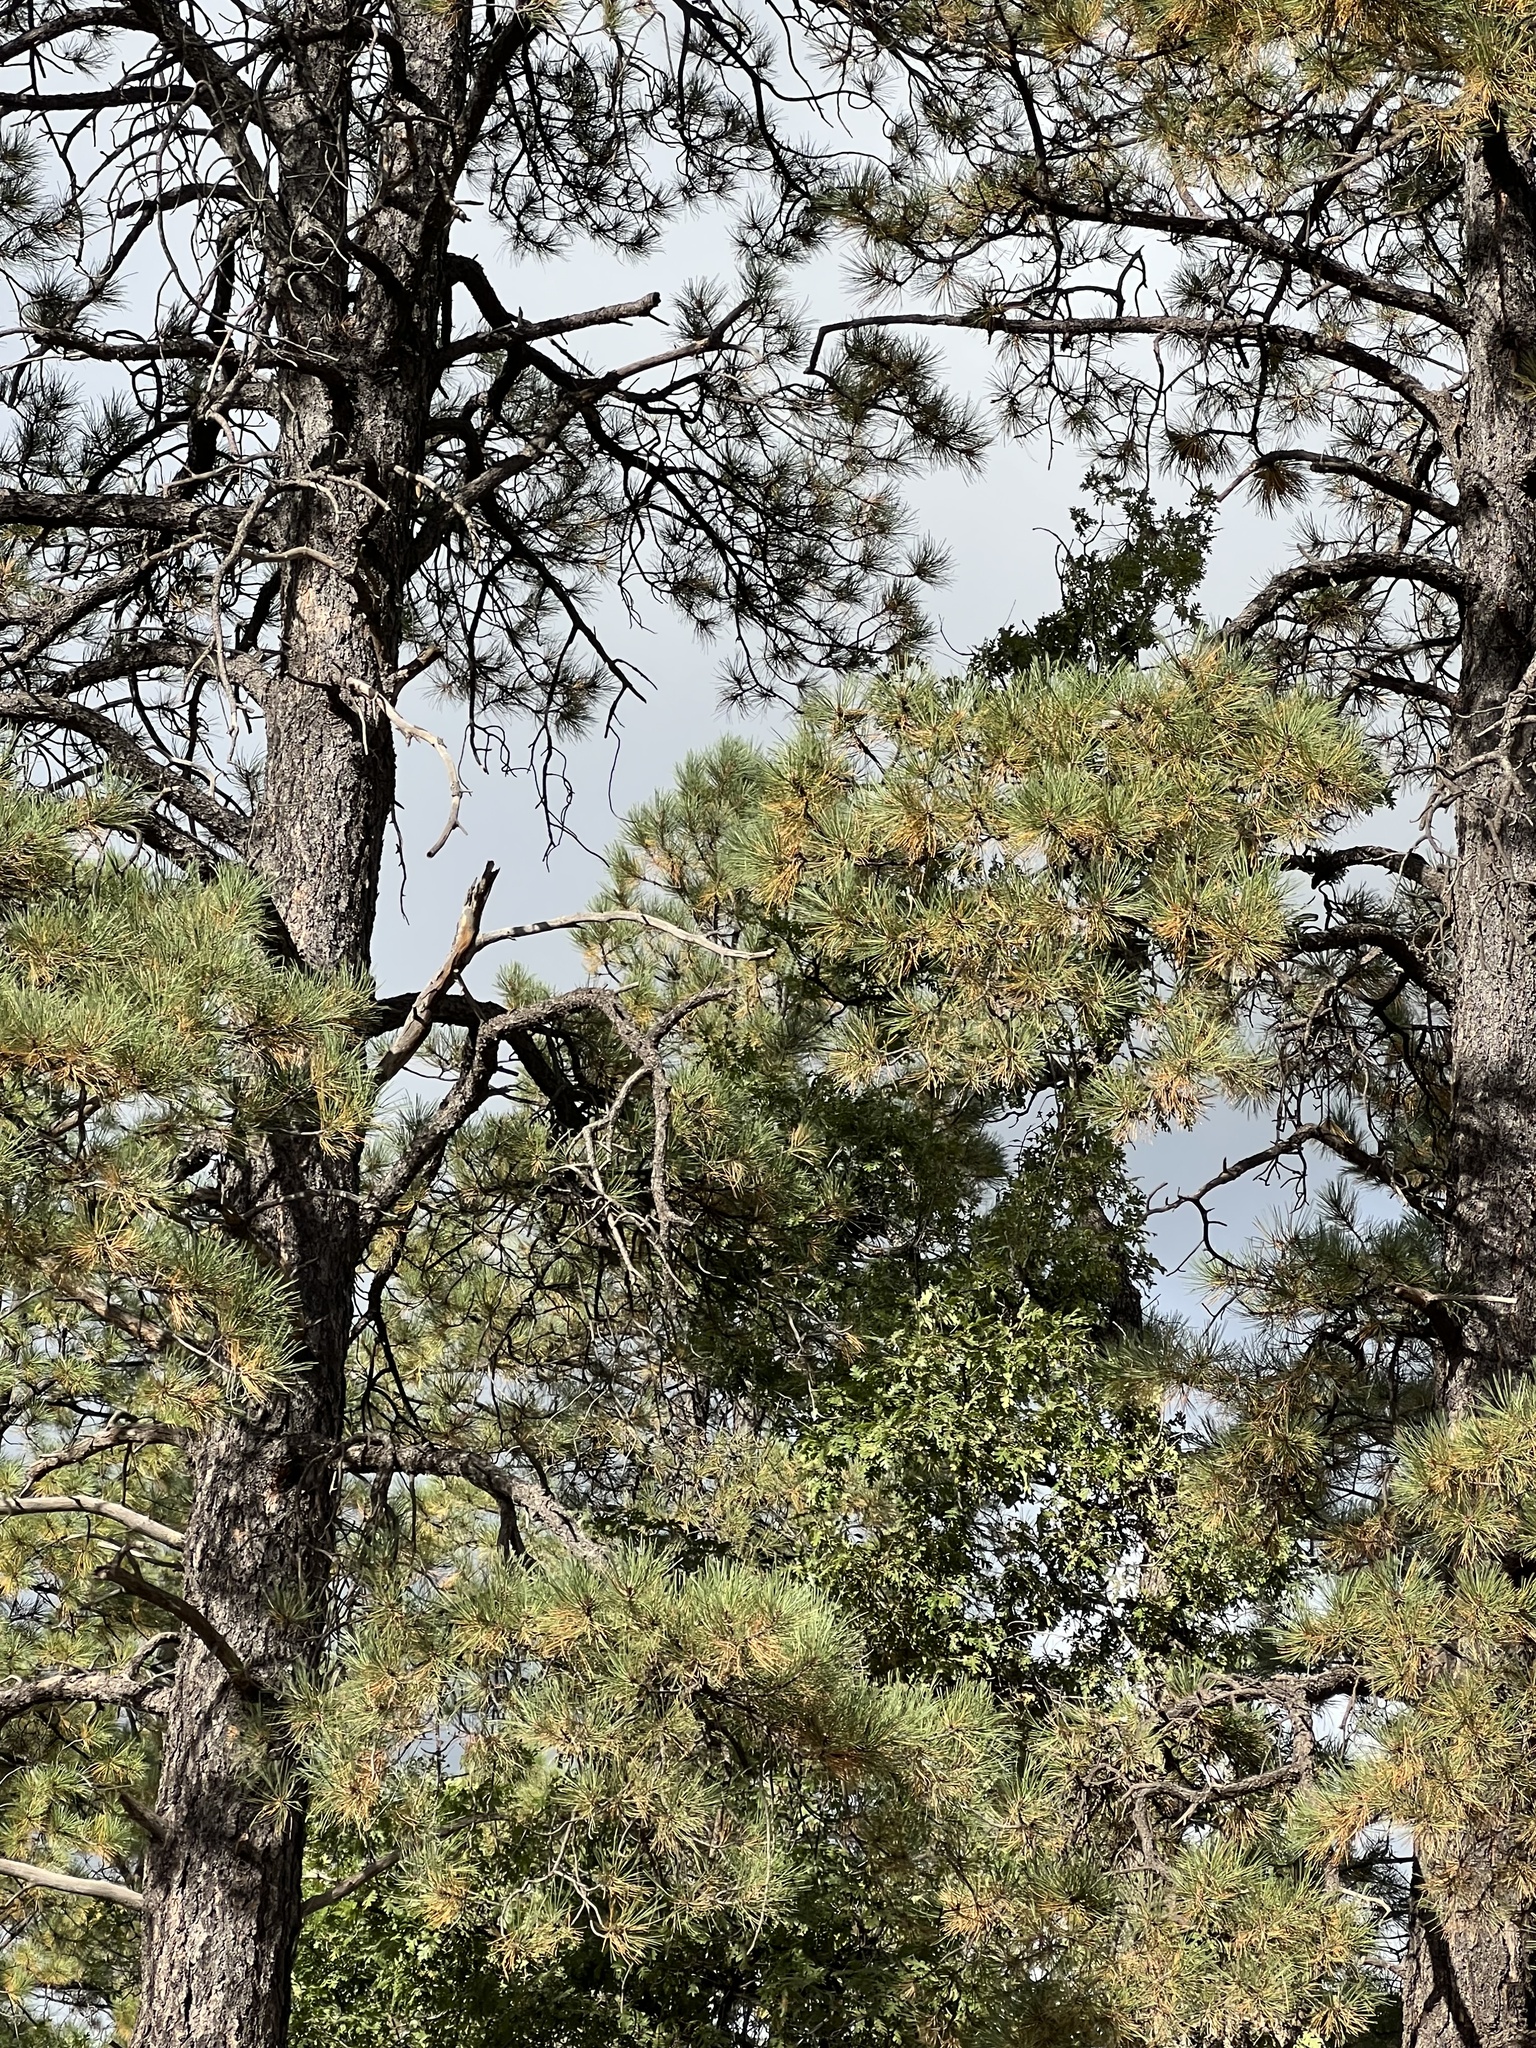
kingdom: Plantae
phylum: Tracheophyta
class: Pinopsida
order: Pinales
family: Pinaceae
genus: Pinus
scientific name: Pinus ponderosa
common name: Western yellow-pine
